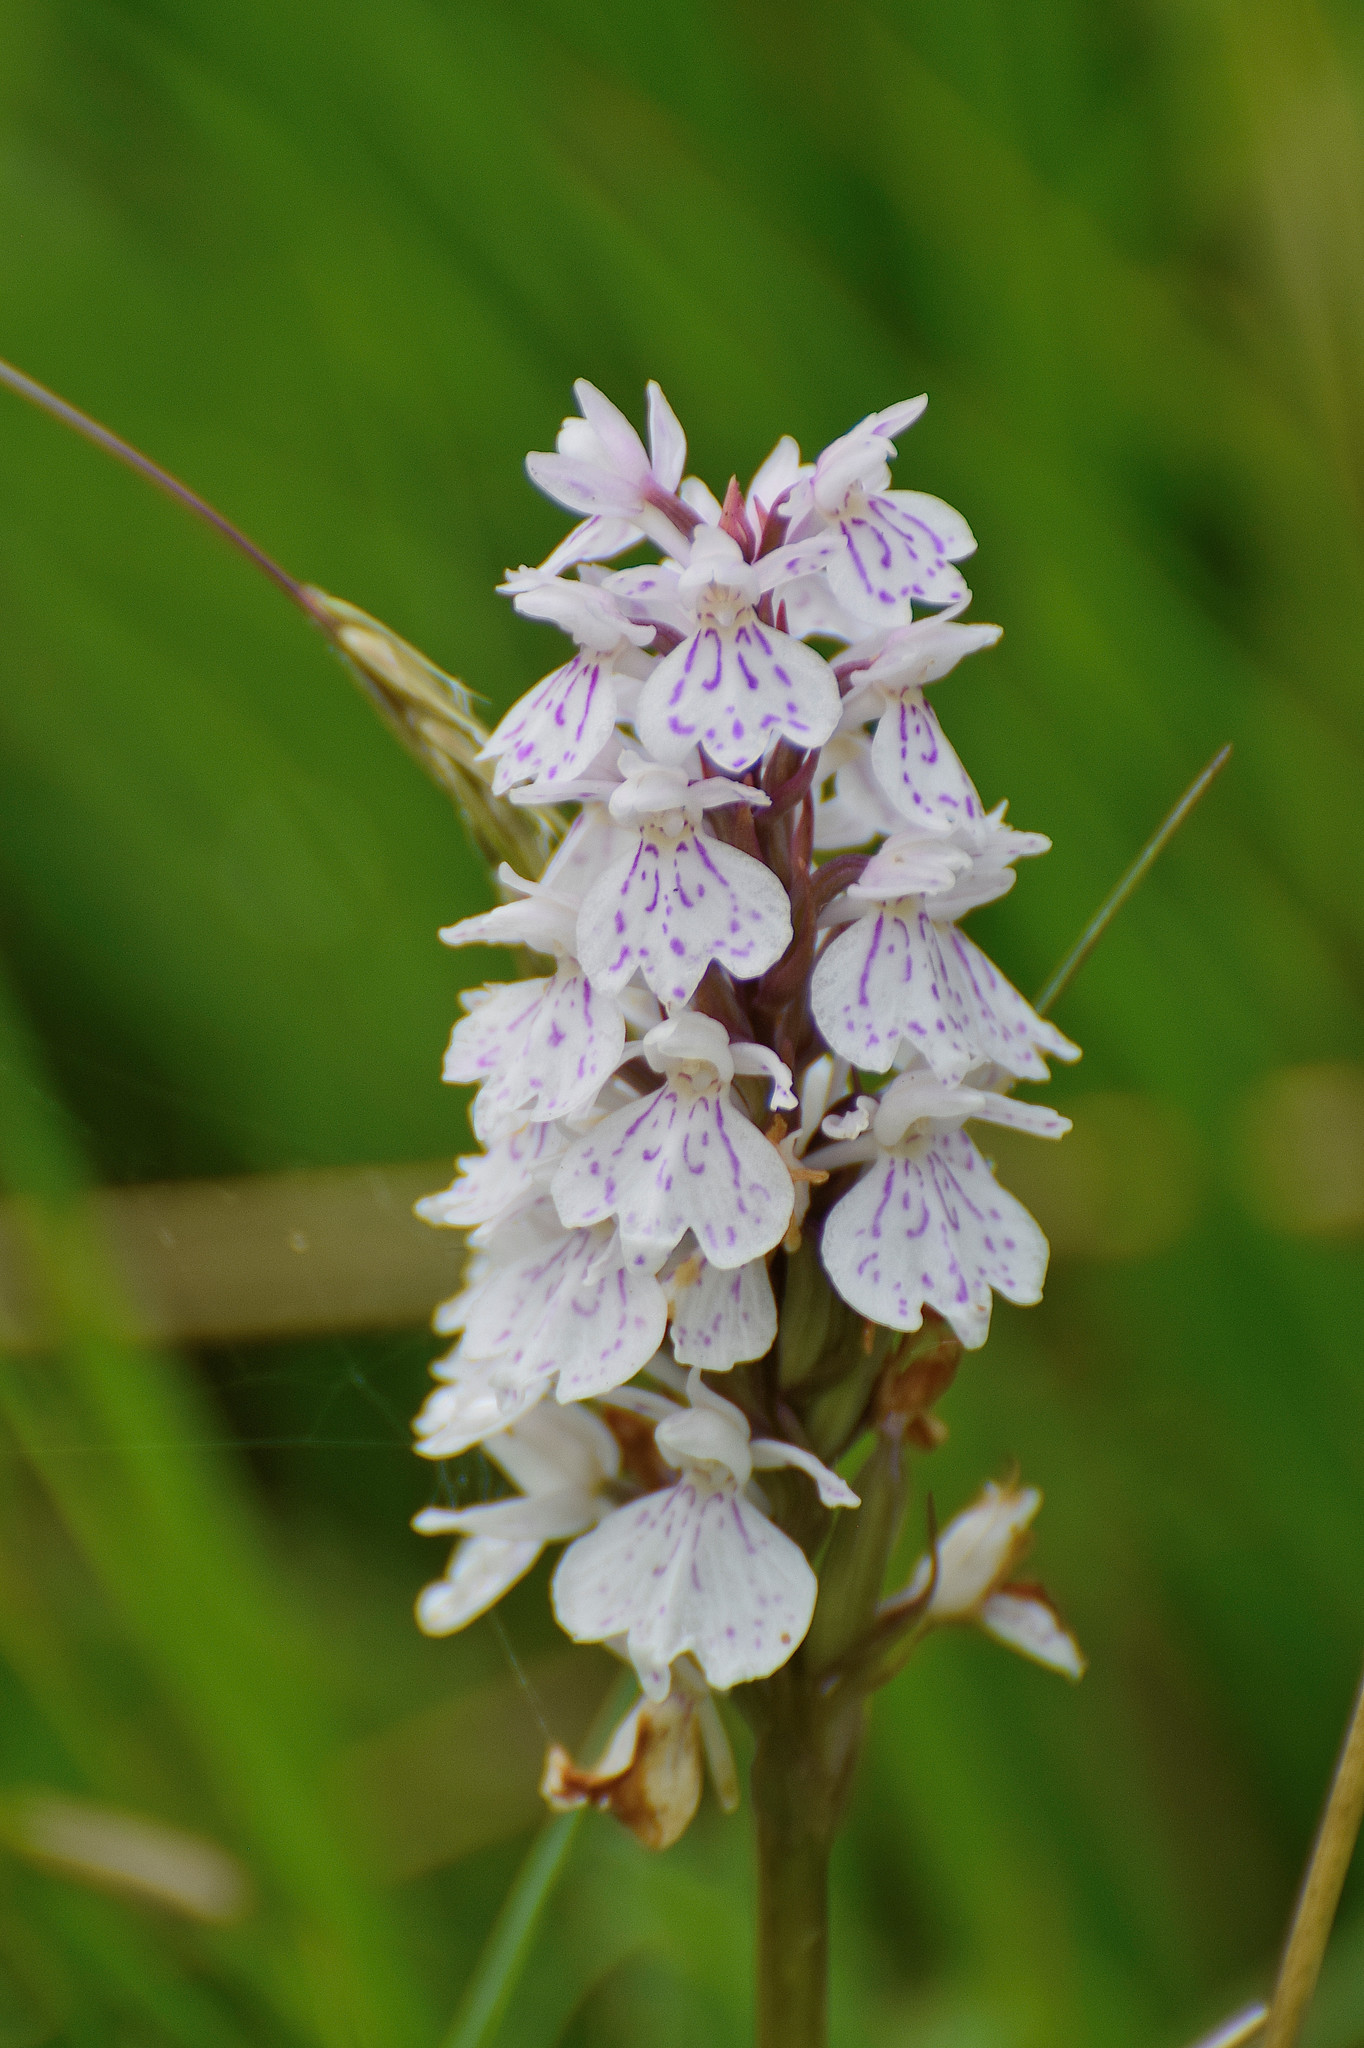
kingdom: Plantae
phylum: Tracheophyta
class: Liliopsida
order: Asparagales
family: Orchidaceae
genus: Dactylorhiza
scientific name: Dactylorhiza maculata
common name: Heath spotted-orchid
